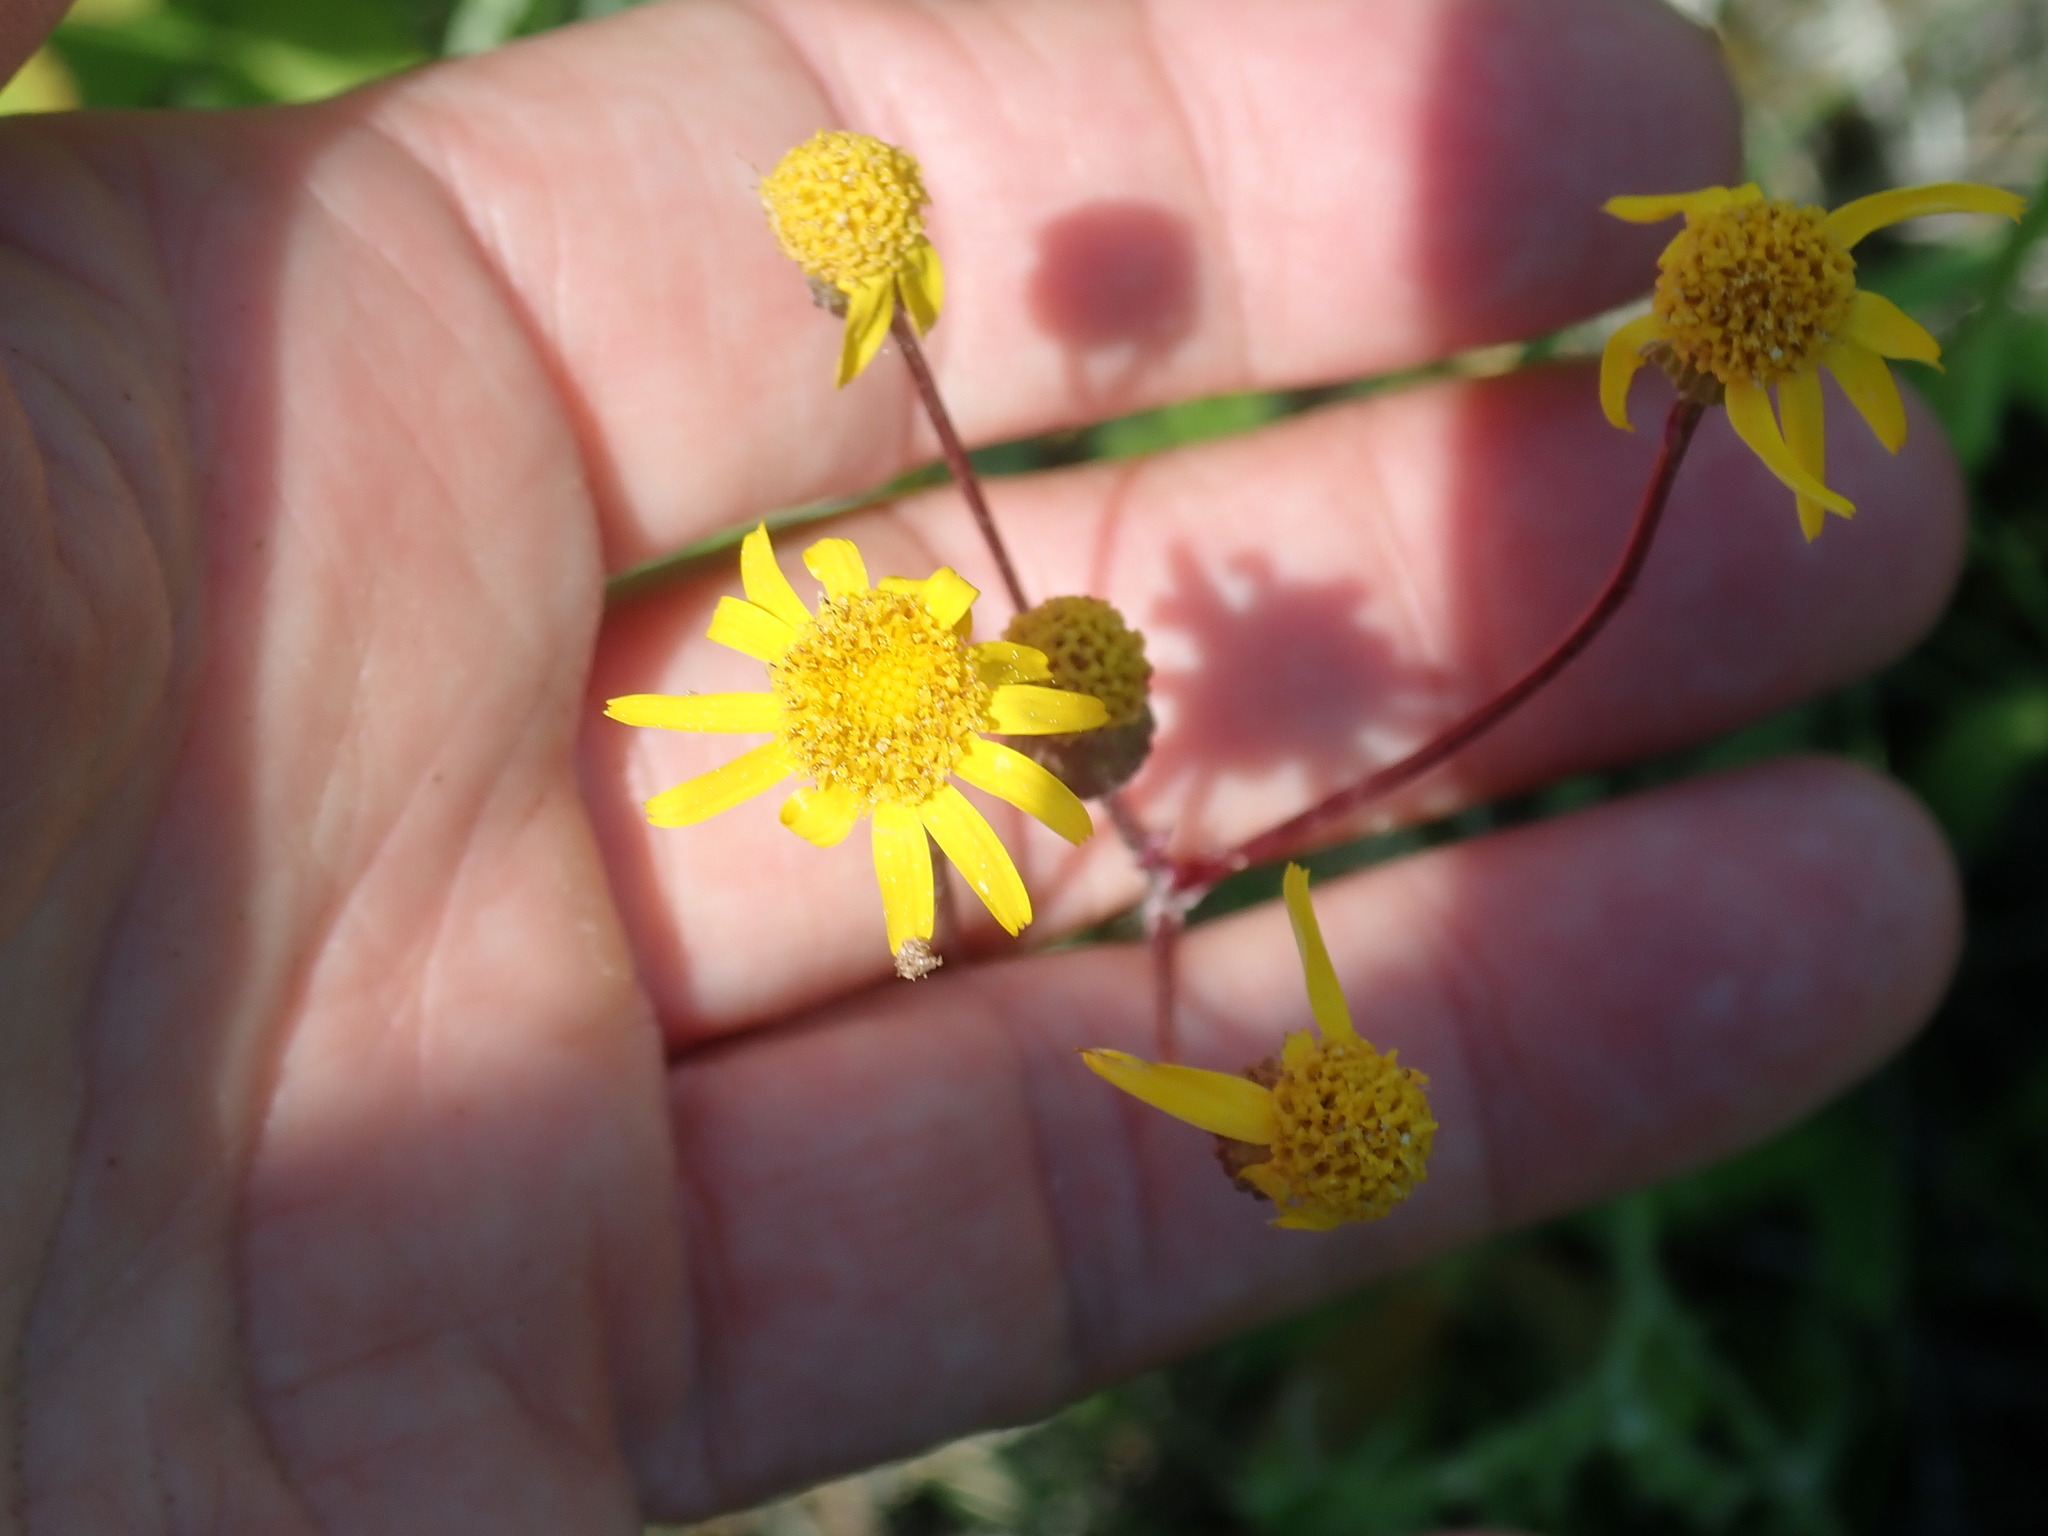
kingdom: Plantae
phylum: Tracheophyta
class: Magnoliopsida
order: Asterales
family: Asteraceae
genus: Packera
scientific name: Packera aurea
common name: Golden groundsel
